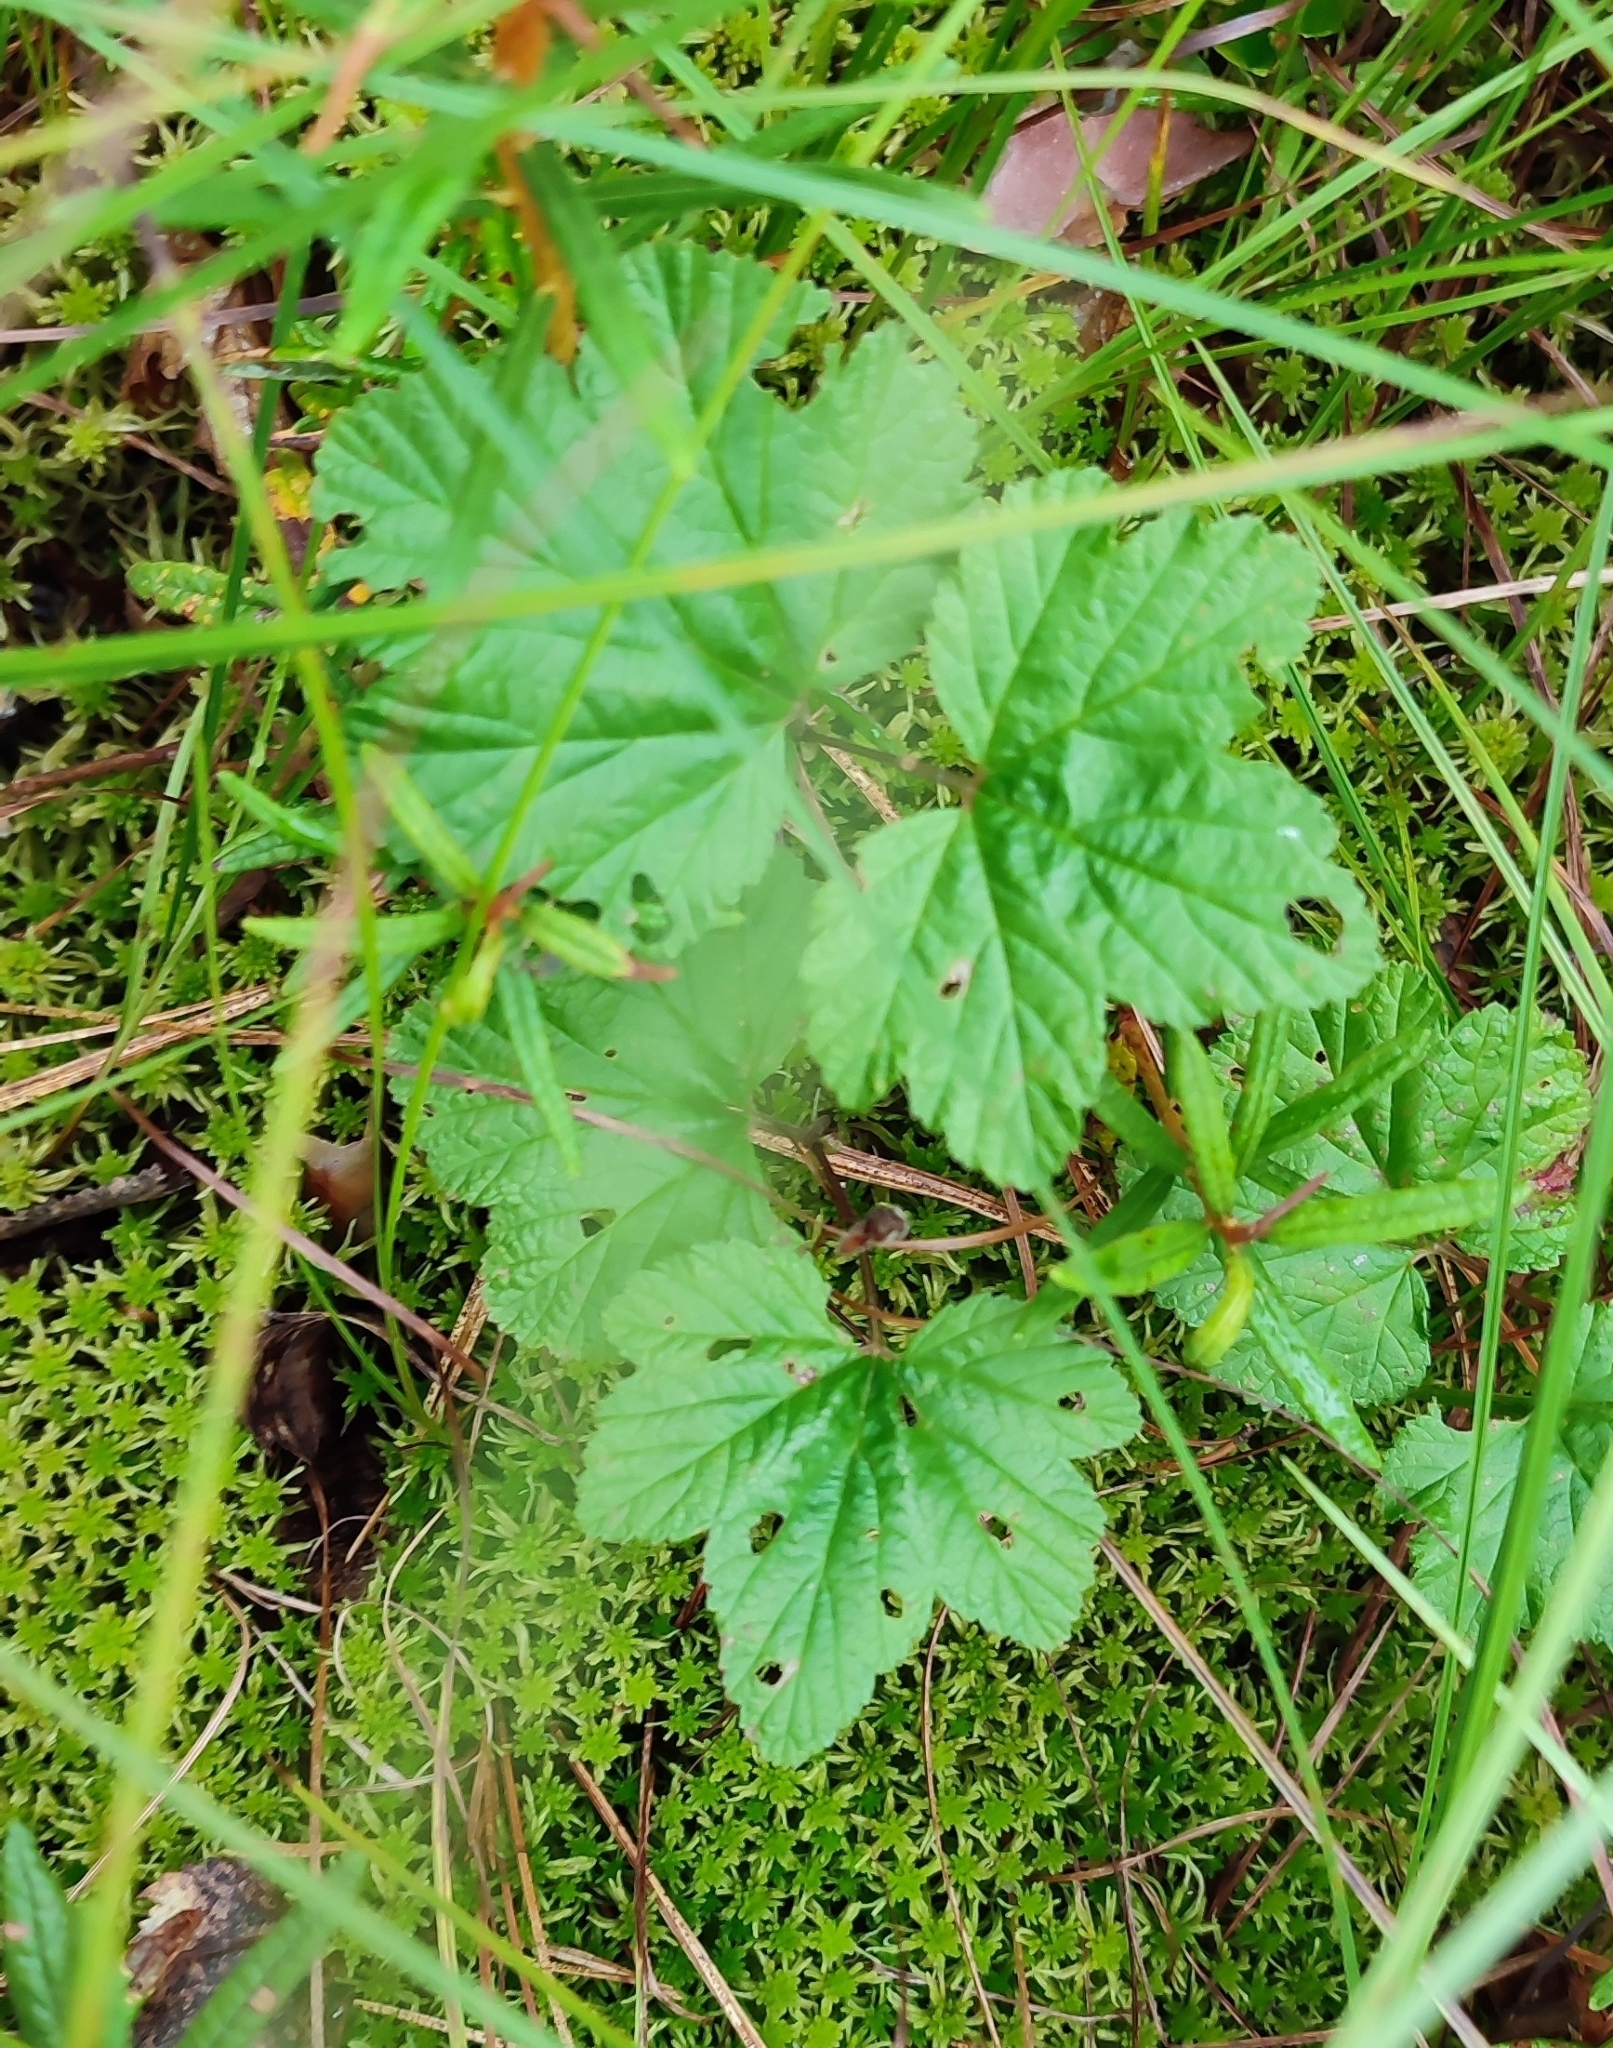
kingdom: Plantae
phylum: Tracheophyta
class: Magnoliopsida
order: Rosales
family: Rosaceae
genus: Rubus
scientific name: Rubus chamaemorus
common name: Cloudberry
